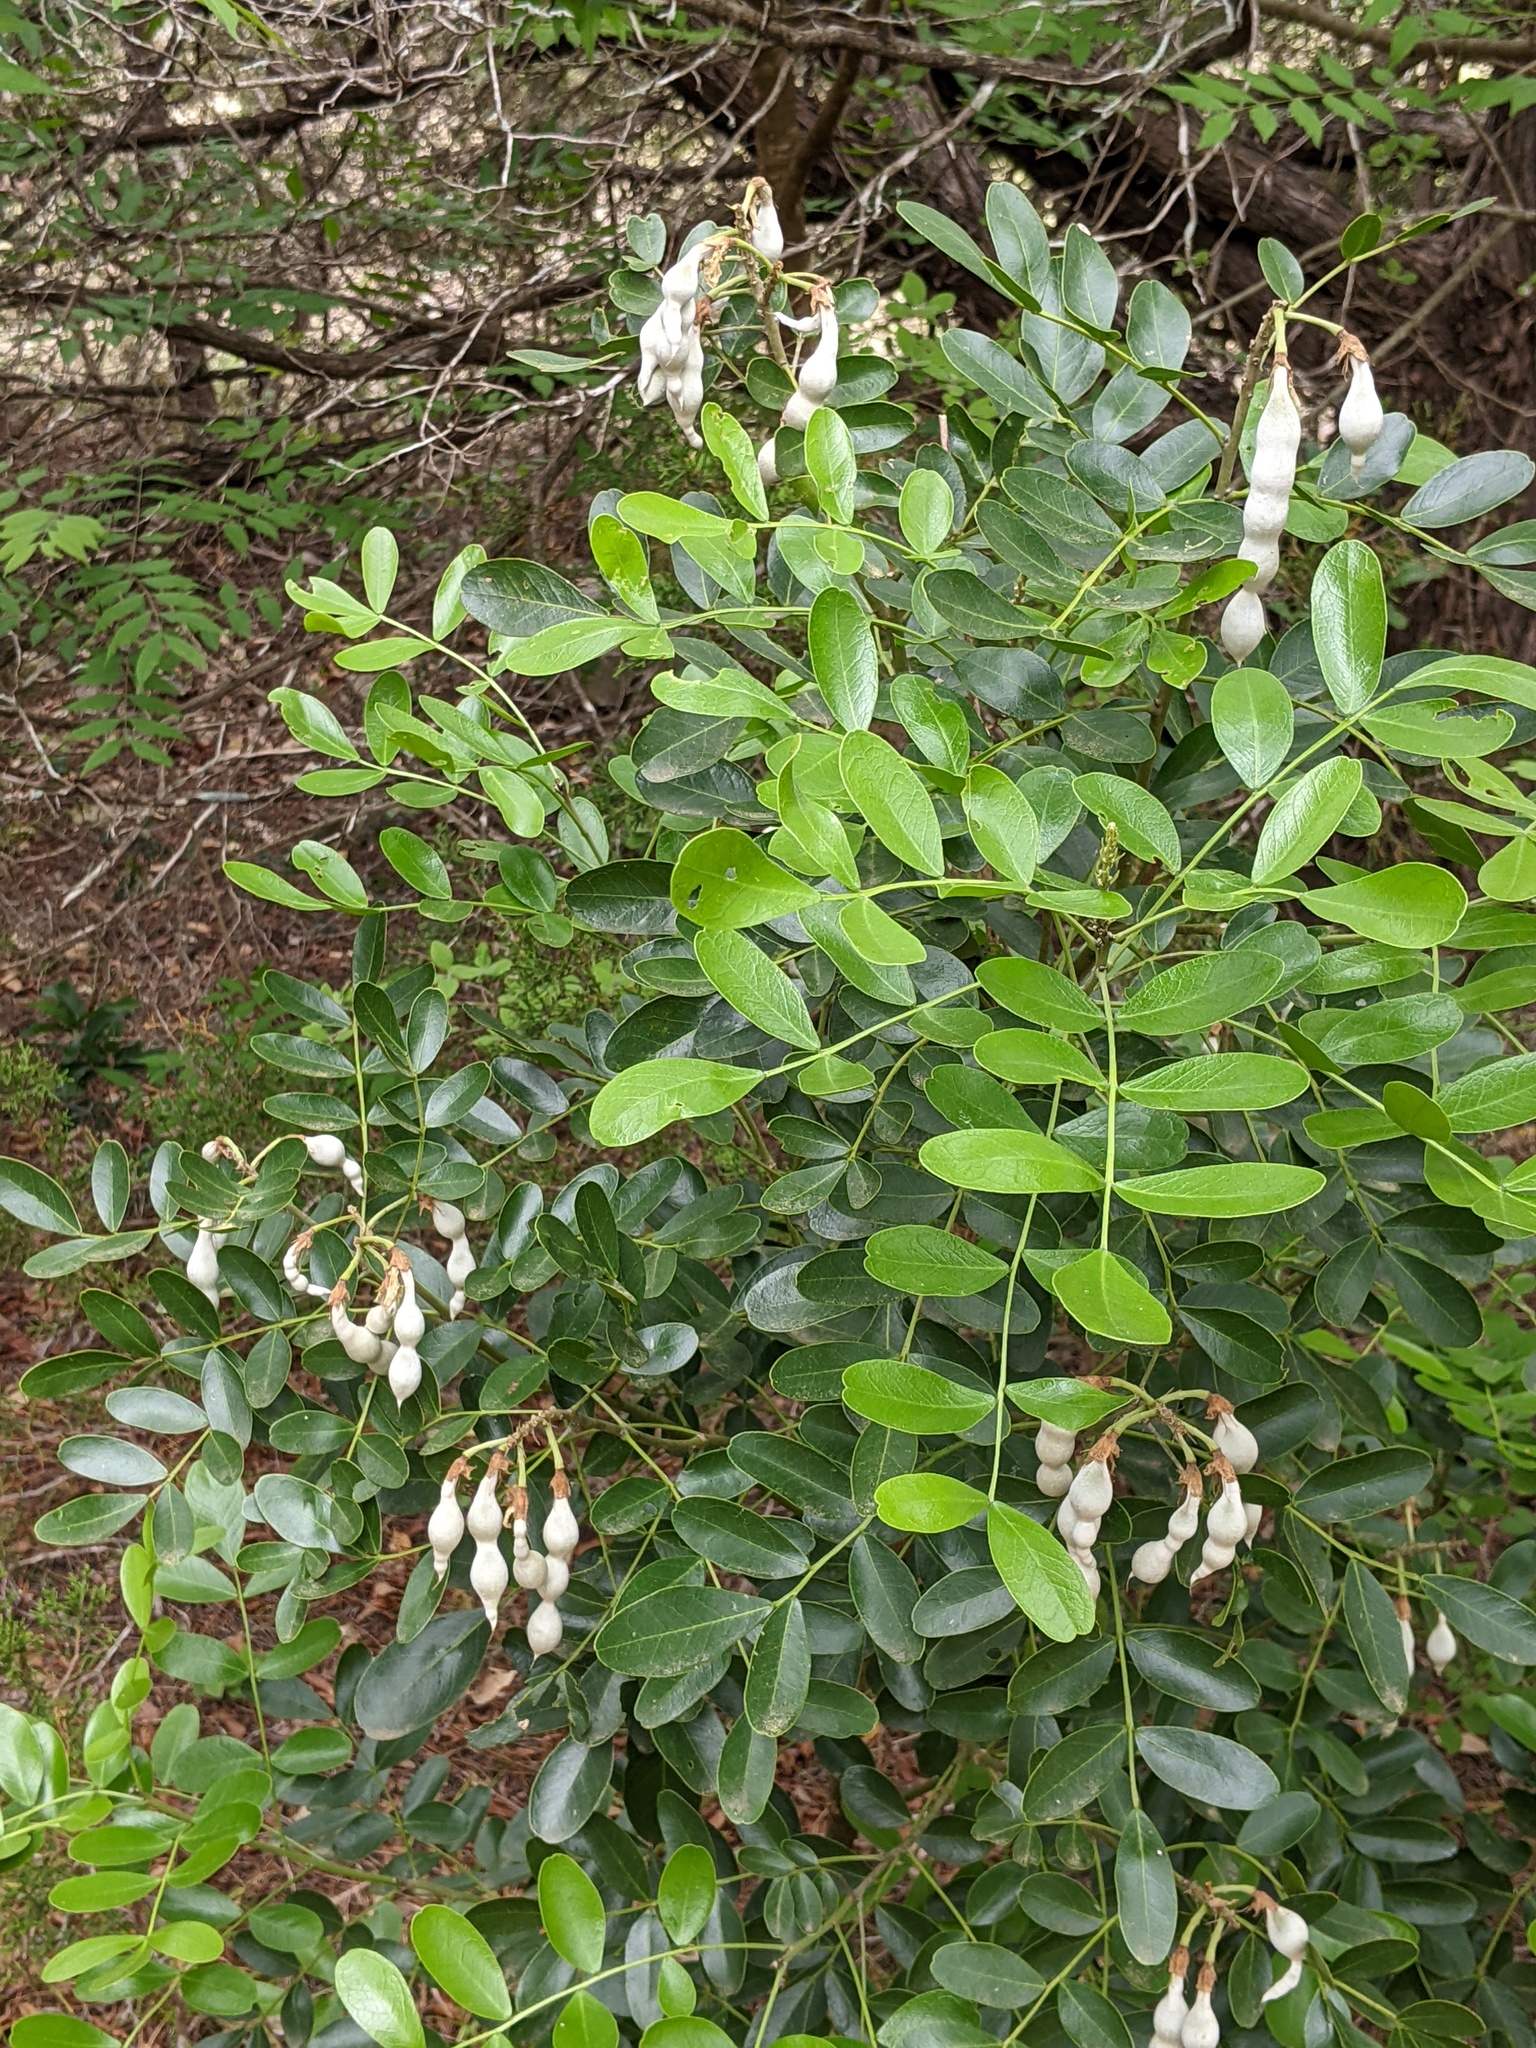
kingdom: Plantae
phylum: Tracheophyta
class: Magnoliopsida
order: Fabales
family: Fabaceae
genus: Dermatophyllum
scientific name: Dermatophyllum secundiflorum
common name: Texas-mountain-laurel
